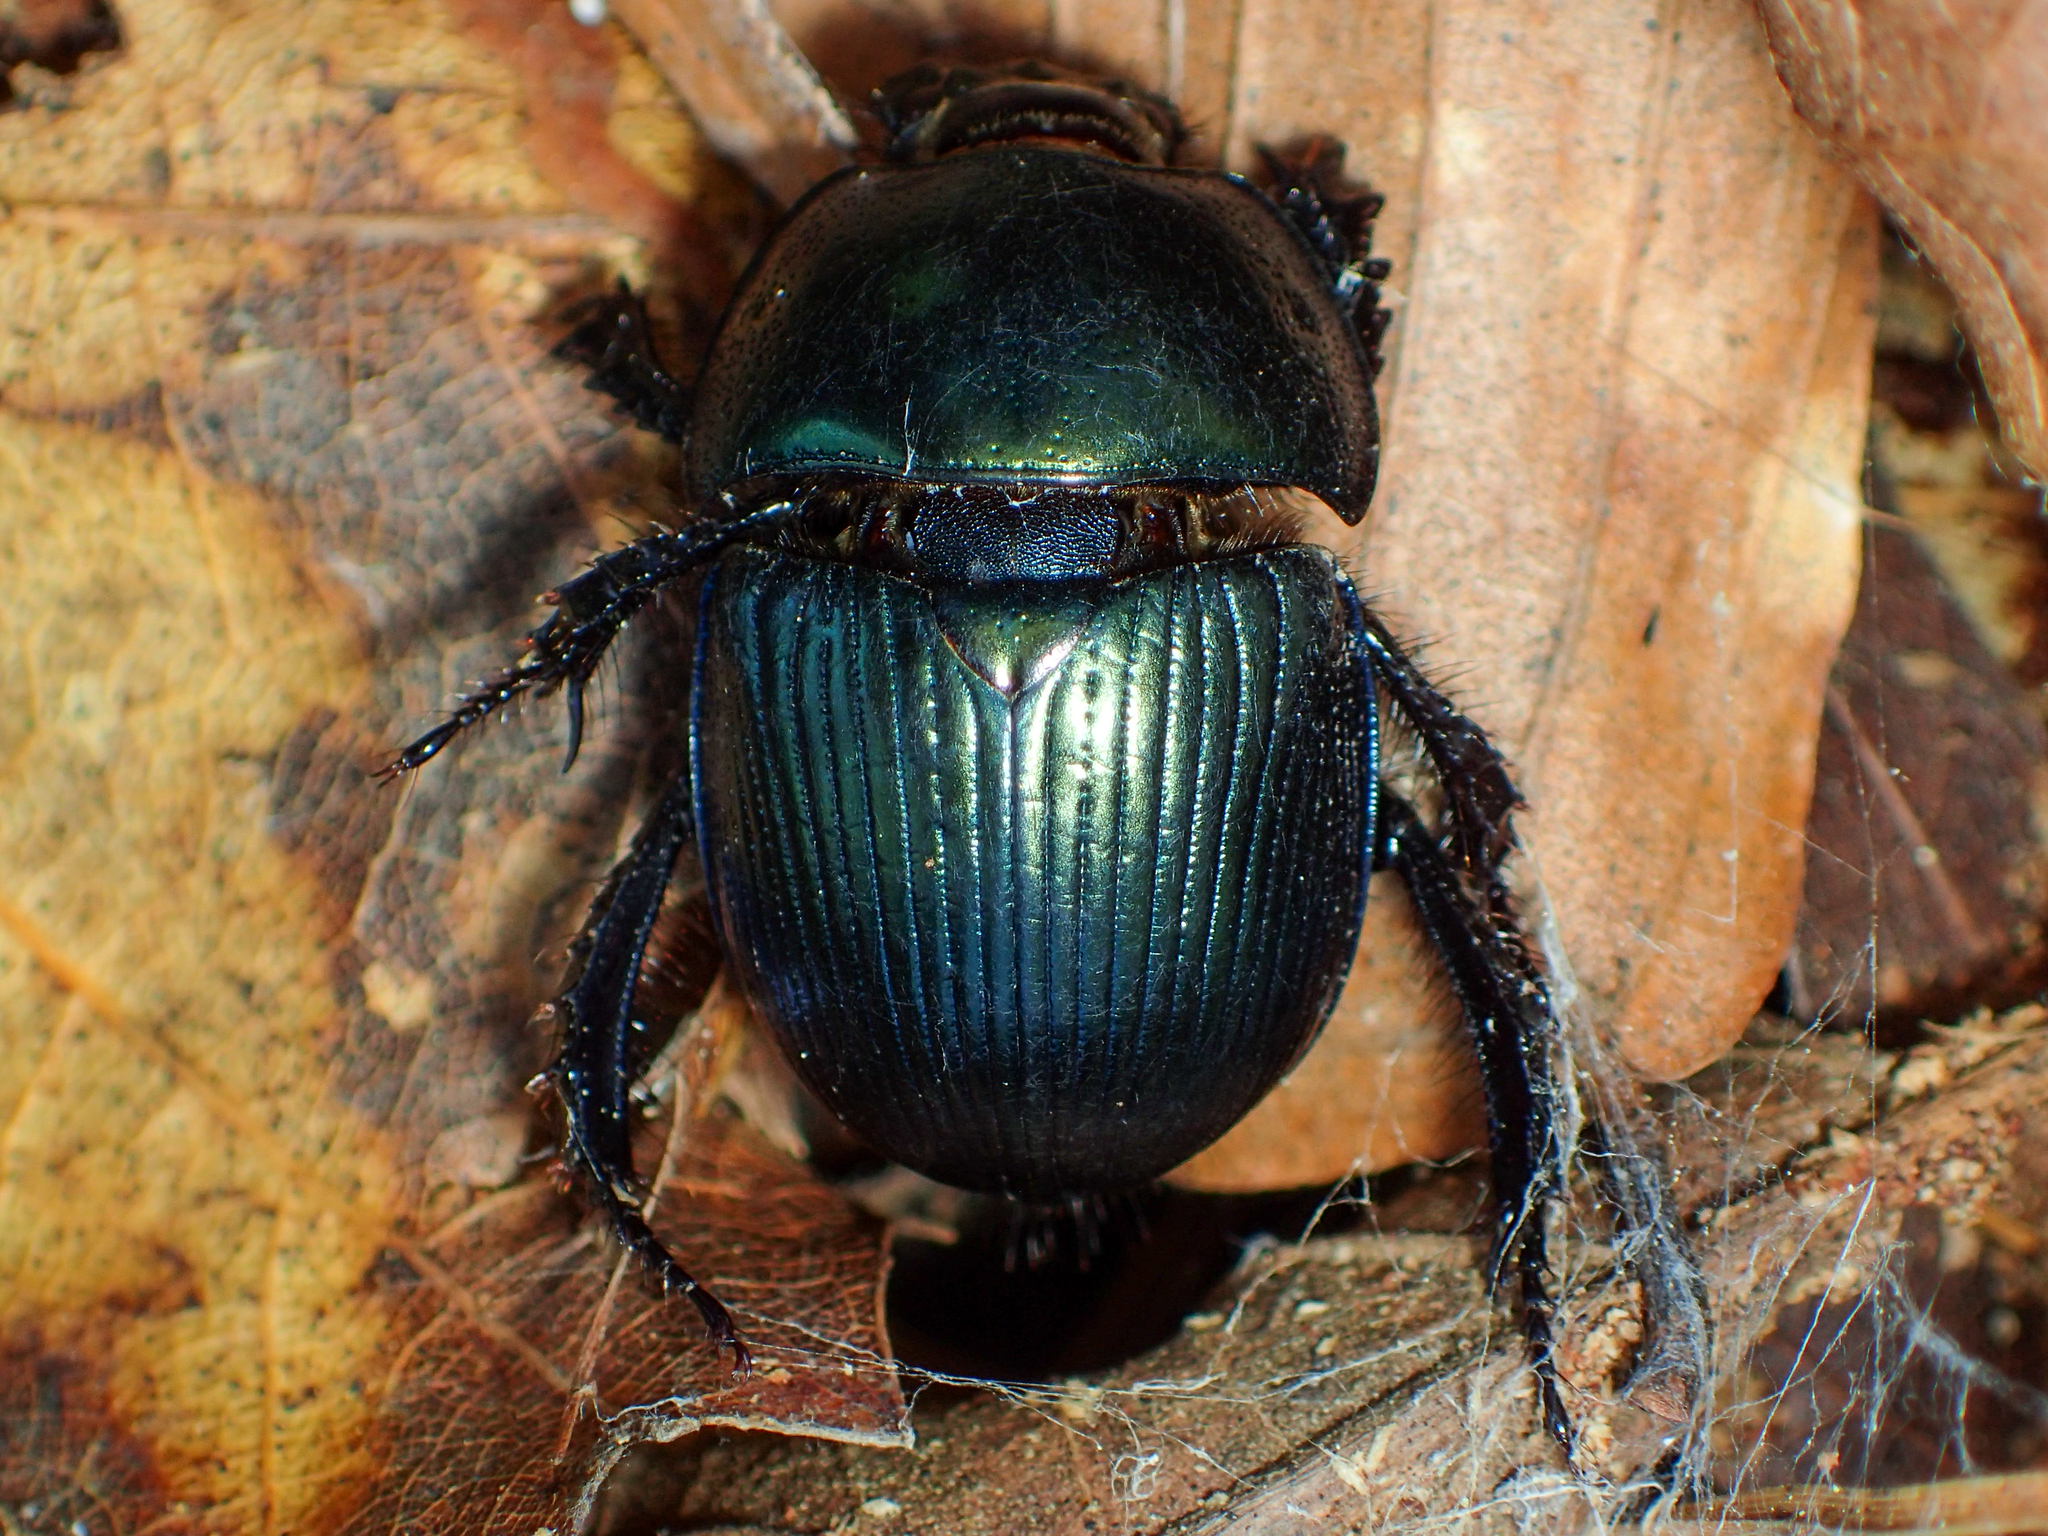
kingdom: Animalia
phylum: Arthropoda
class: Insecta
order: Coleoptera
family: Geotrupidae
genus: Geotrupes
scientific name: Geotrupes splendidus
